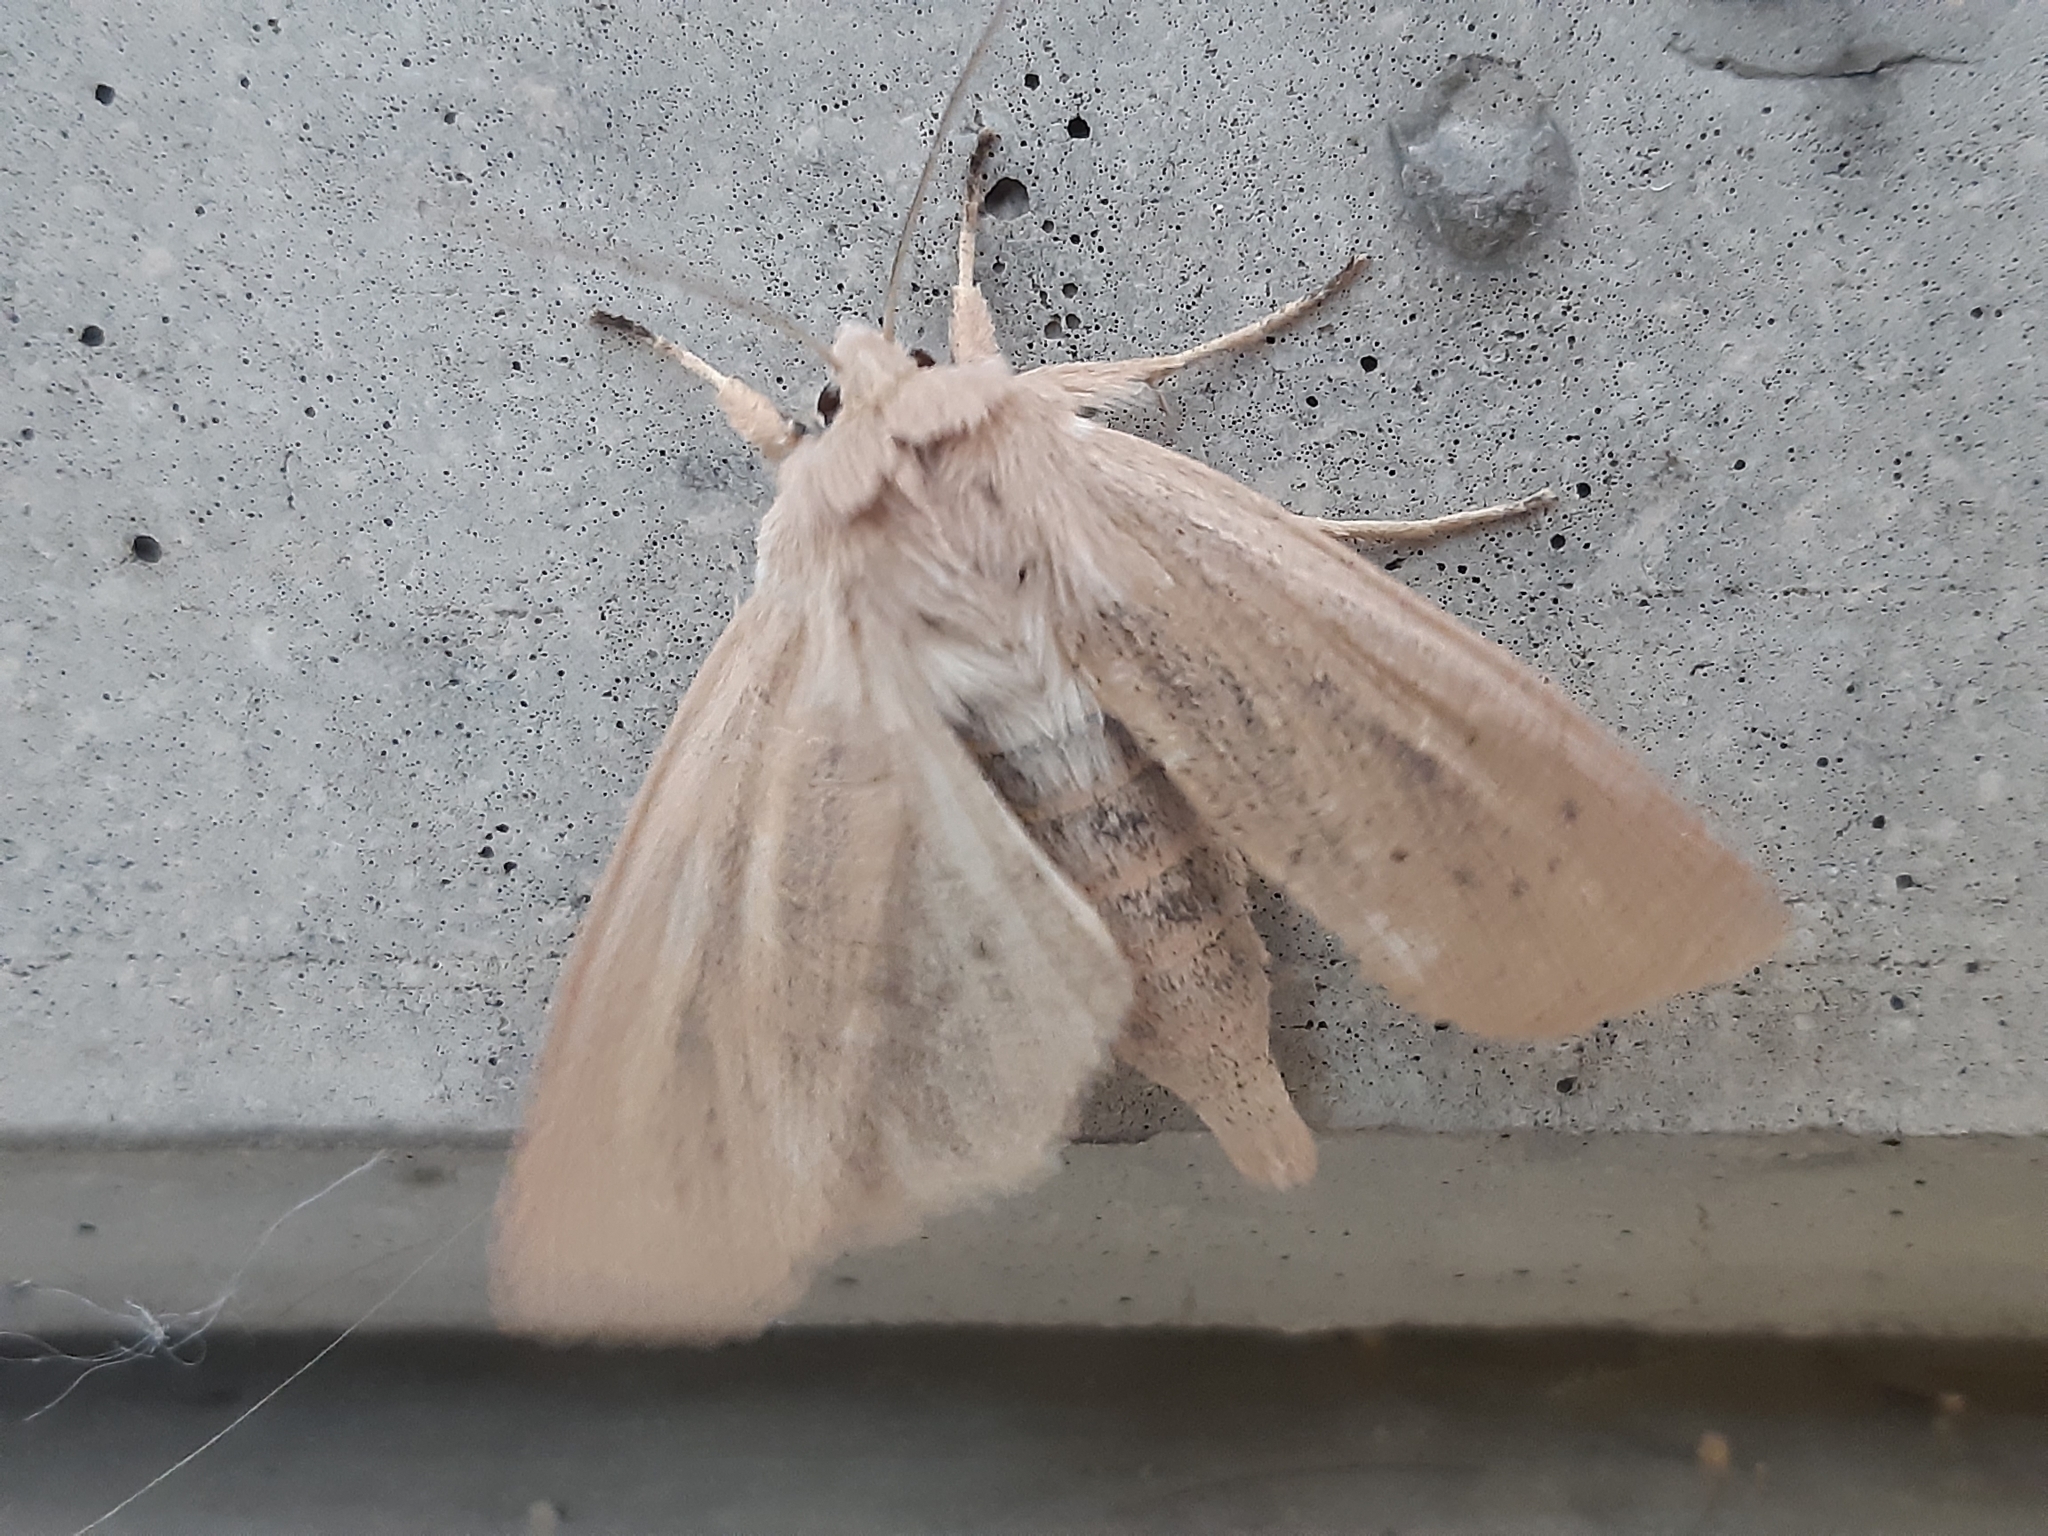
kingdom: Animalia
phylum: Arthropoda
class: Insecta
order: Lepidoptera
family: Noctuidae
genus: Rhizedra
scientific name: Rhizedra lutosa
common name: Large wainscot
